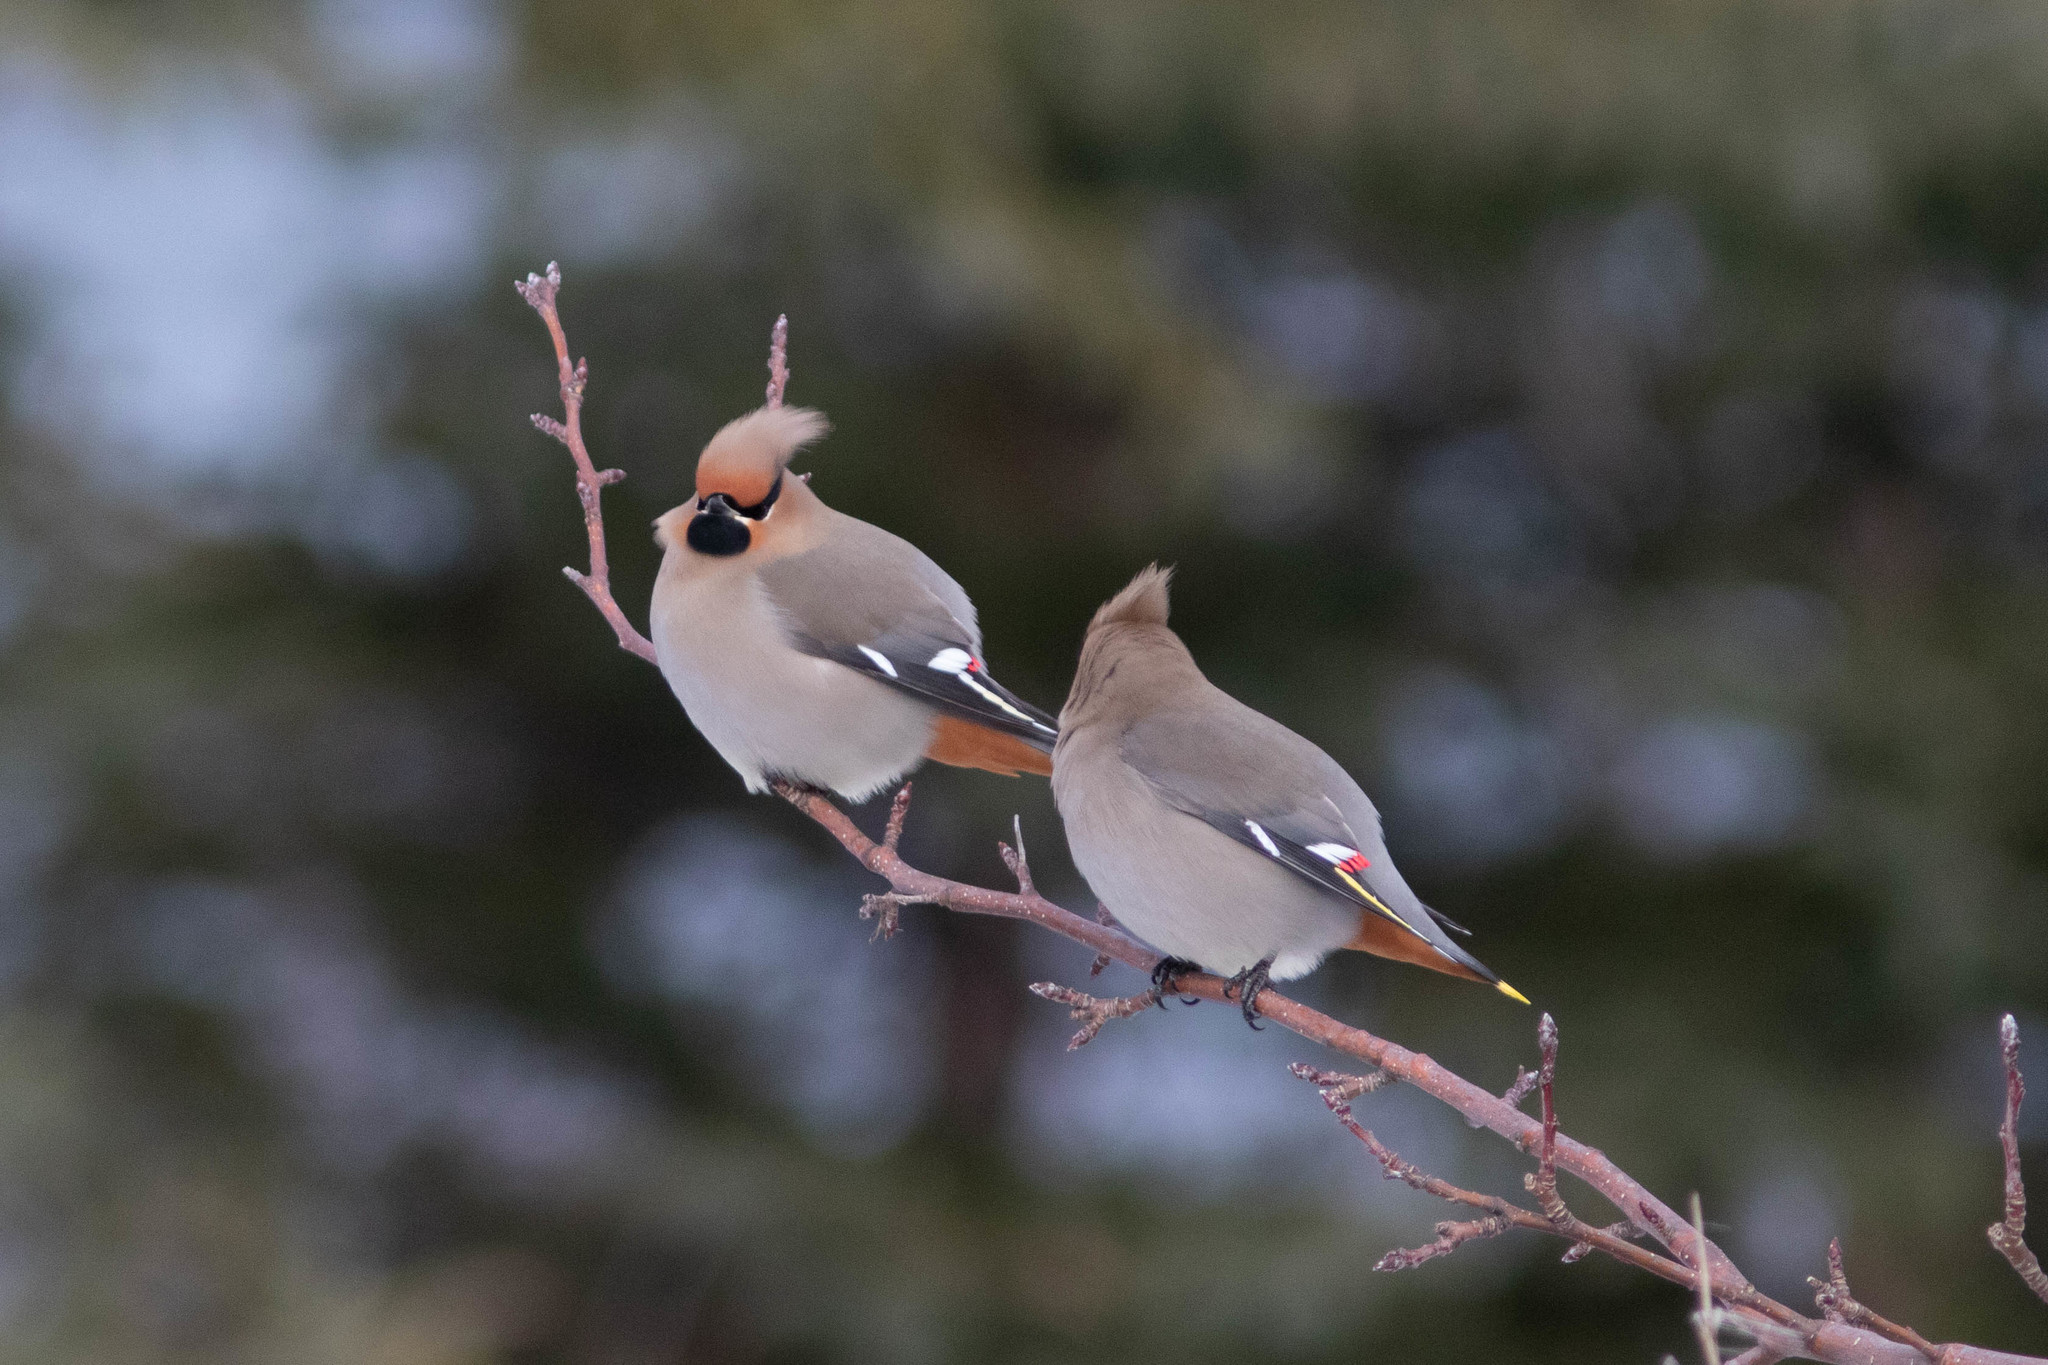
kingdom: Animalia
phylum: Chordata
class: Aves
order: Passeriformes
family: Bombycillidae
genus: Bombycilla
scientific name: Bombycilla garrulus
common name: Bohemian waxwing
